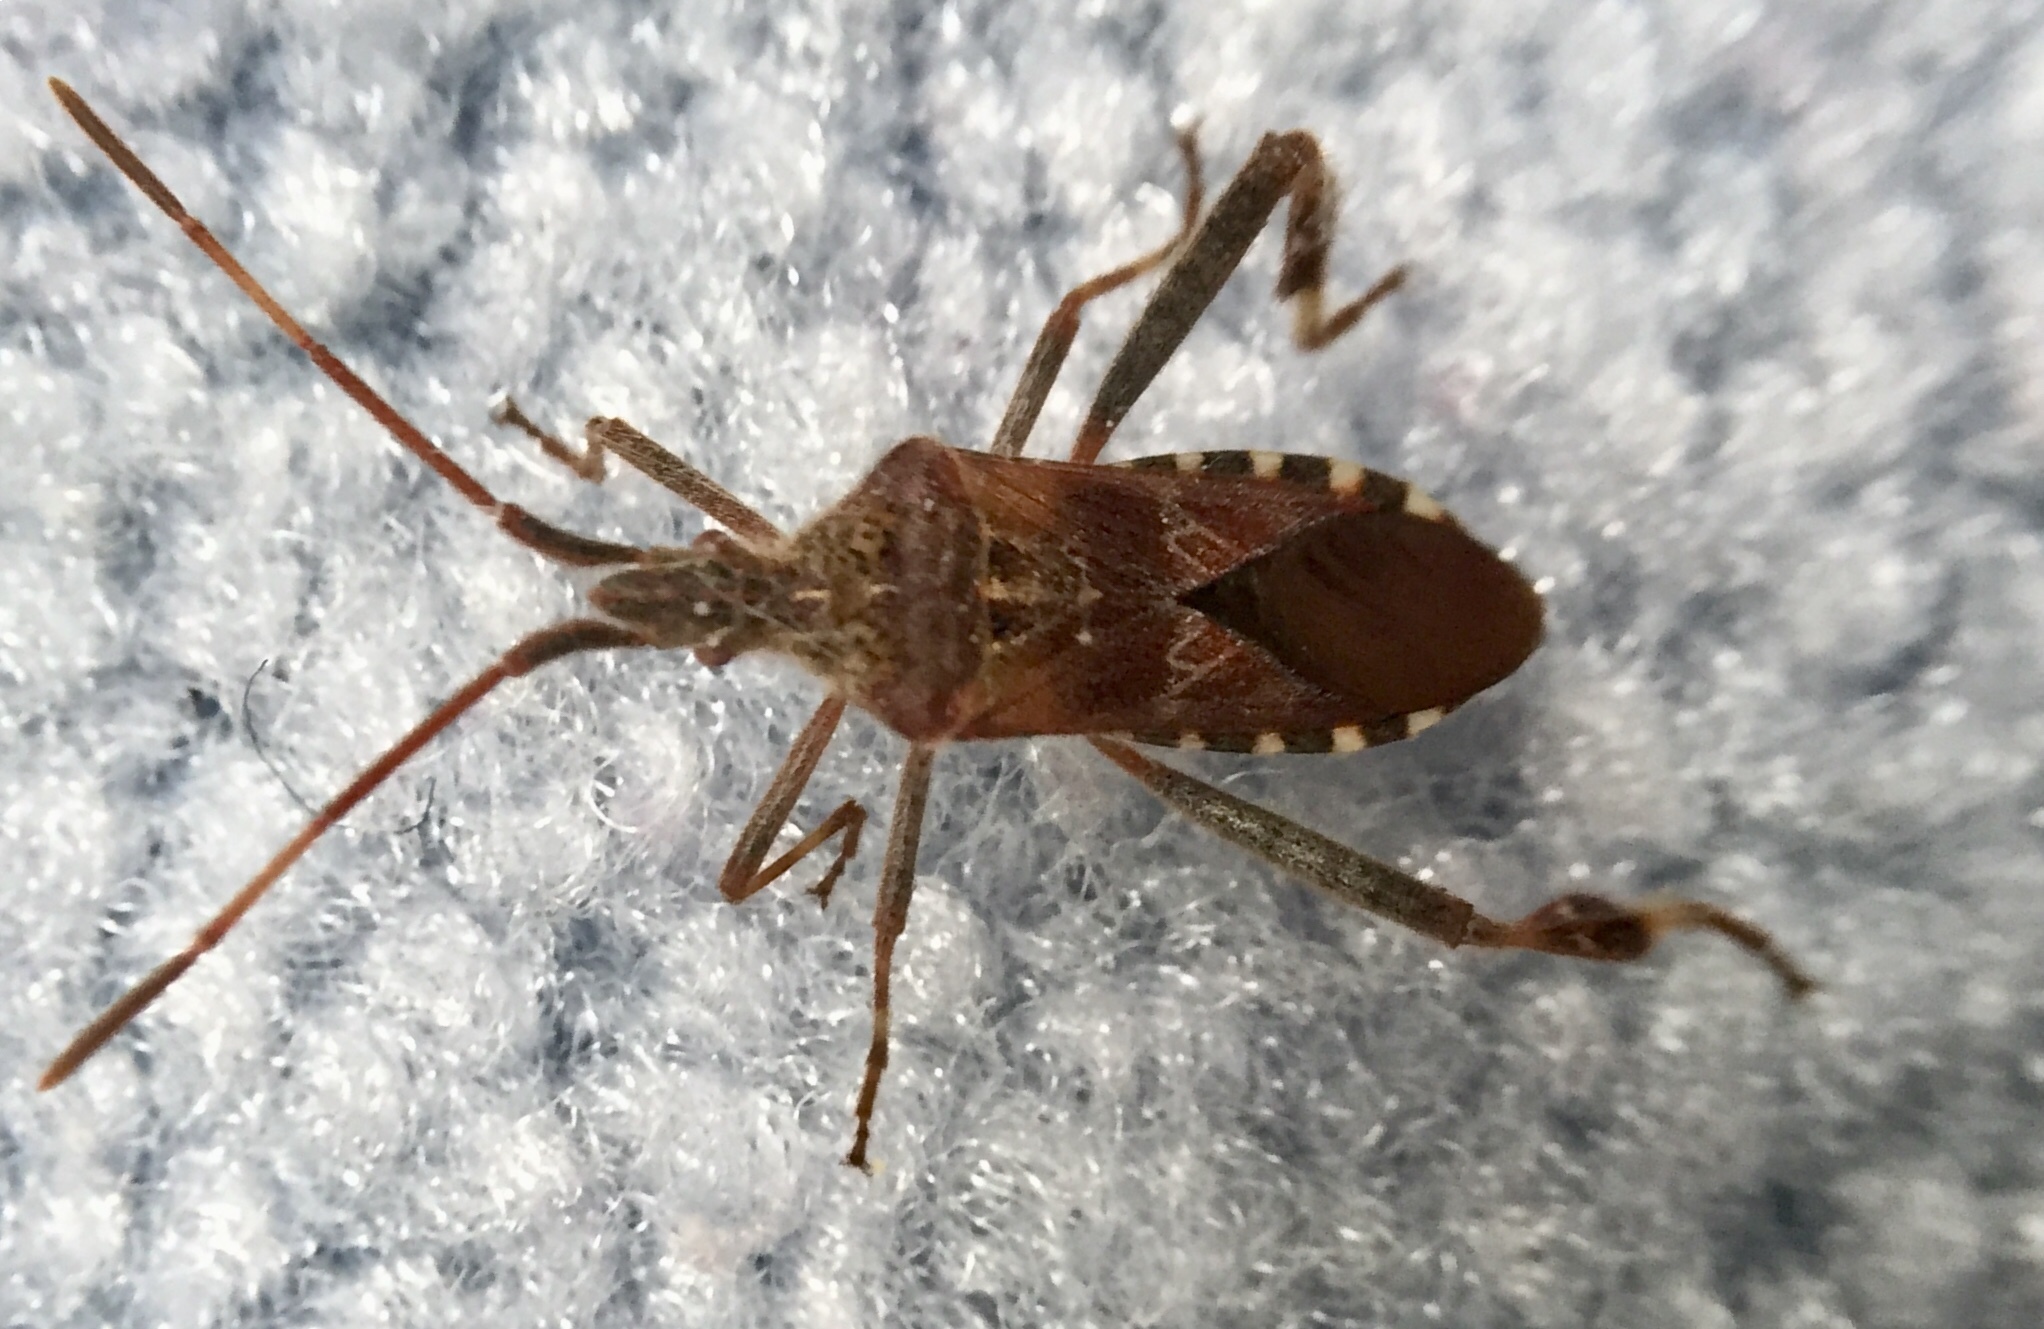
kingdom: Animalia
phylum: Arthropoda
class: Insecta
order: Hemiptera
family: Coreidae
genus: Leptoglossus
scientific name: Leptoglossus occidentalis
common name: Western conifer-seed bug
